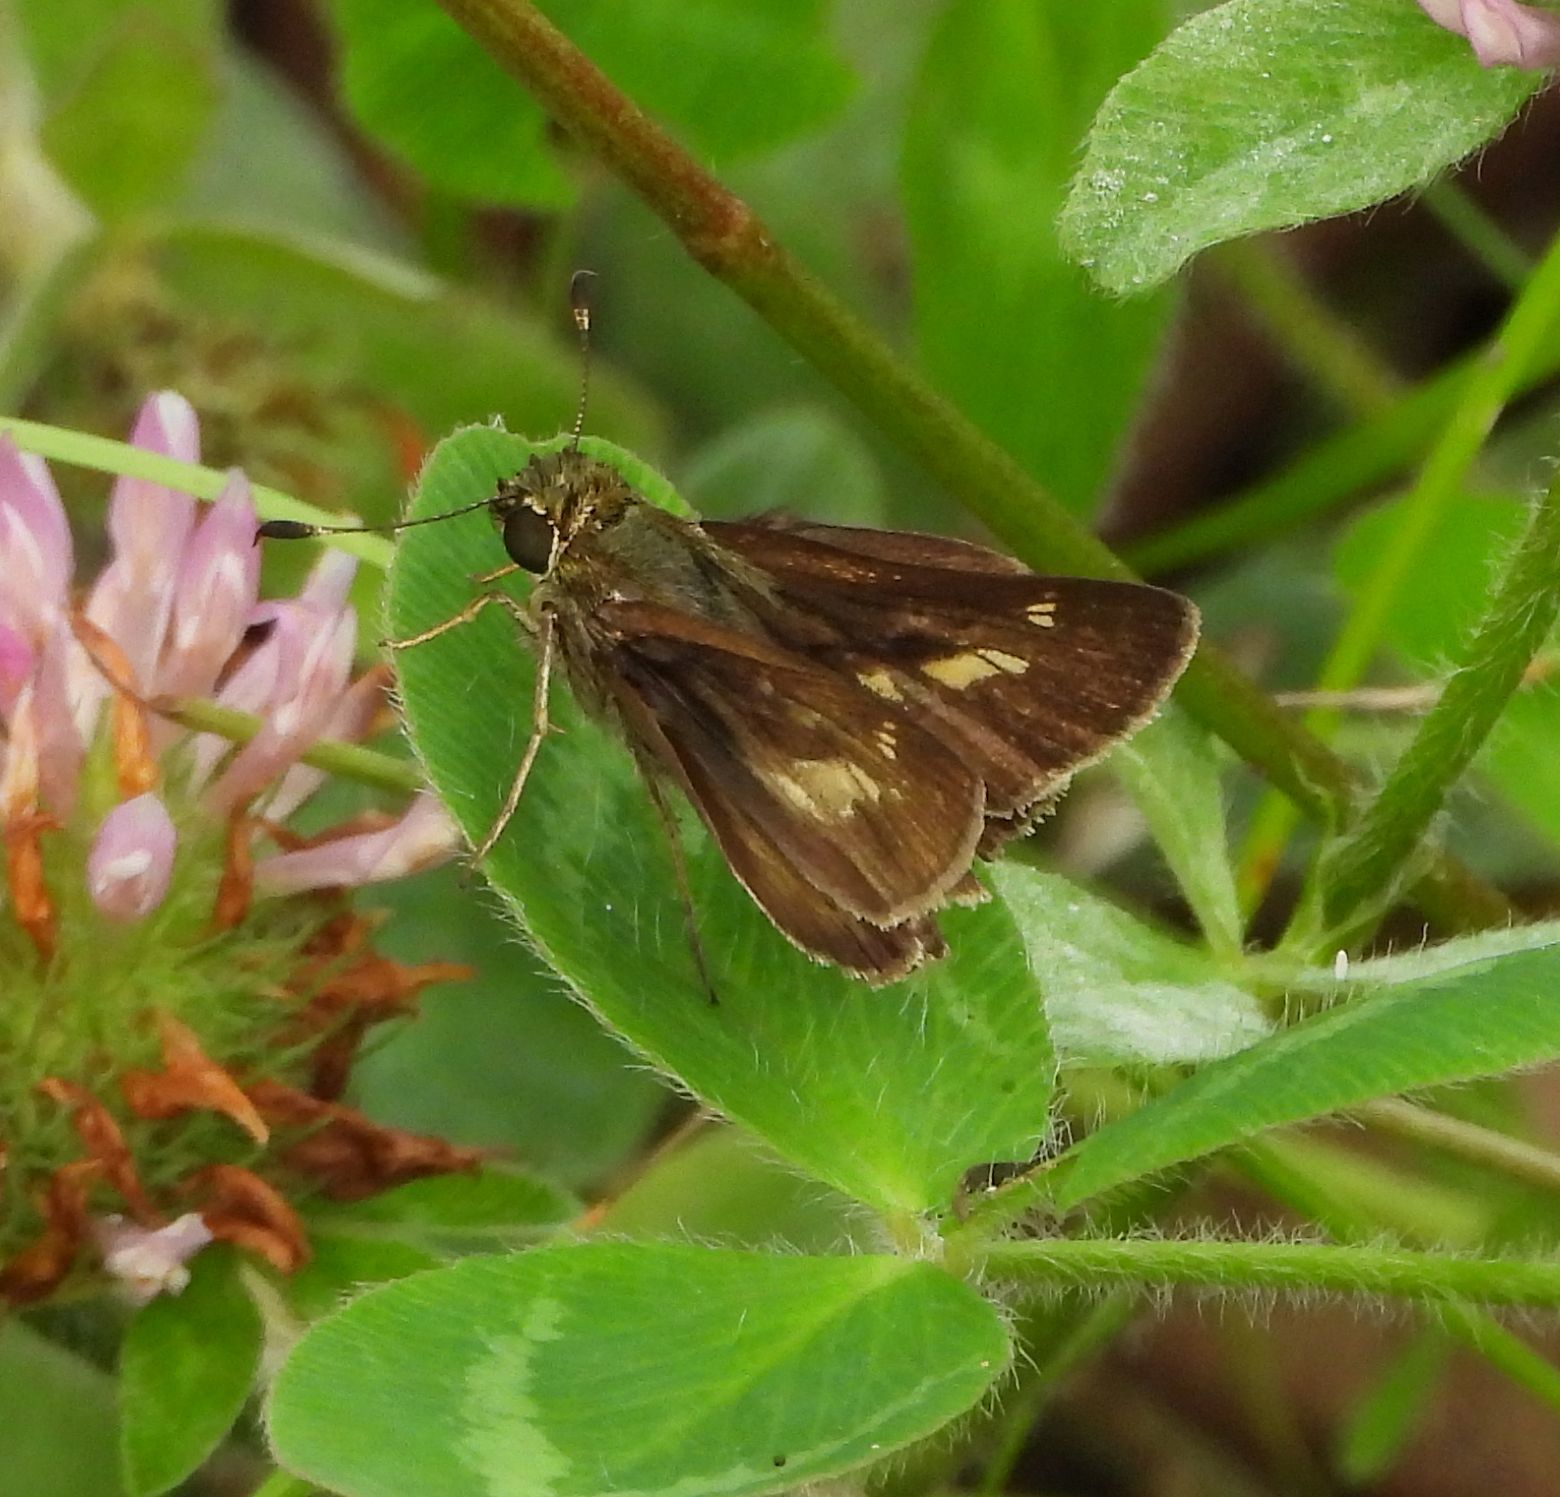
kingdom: Animalia
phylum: Arthropoda
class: Insecta
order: Lepidoptera
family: Hesperiidae
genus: Vernia
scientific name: Vernia verna
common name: Little glassywing
